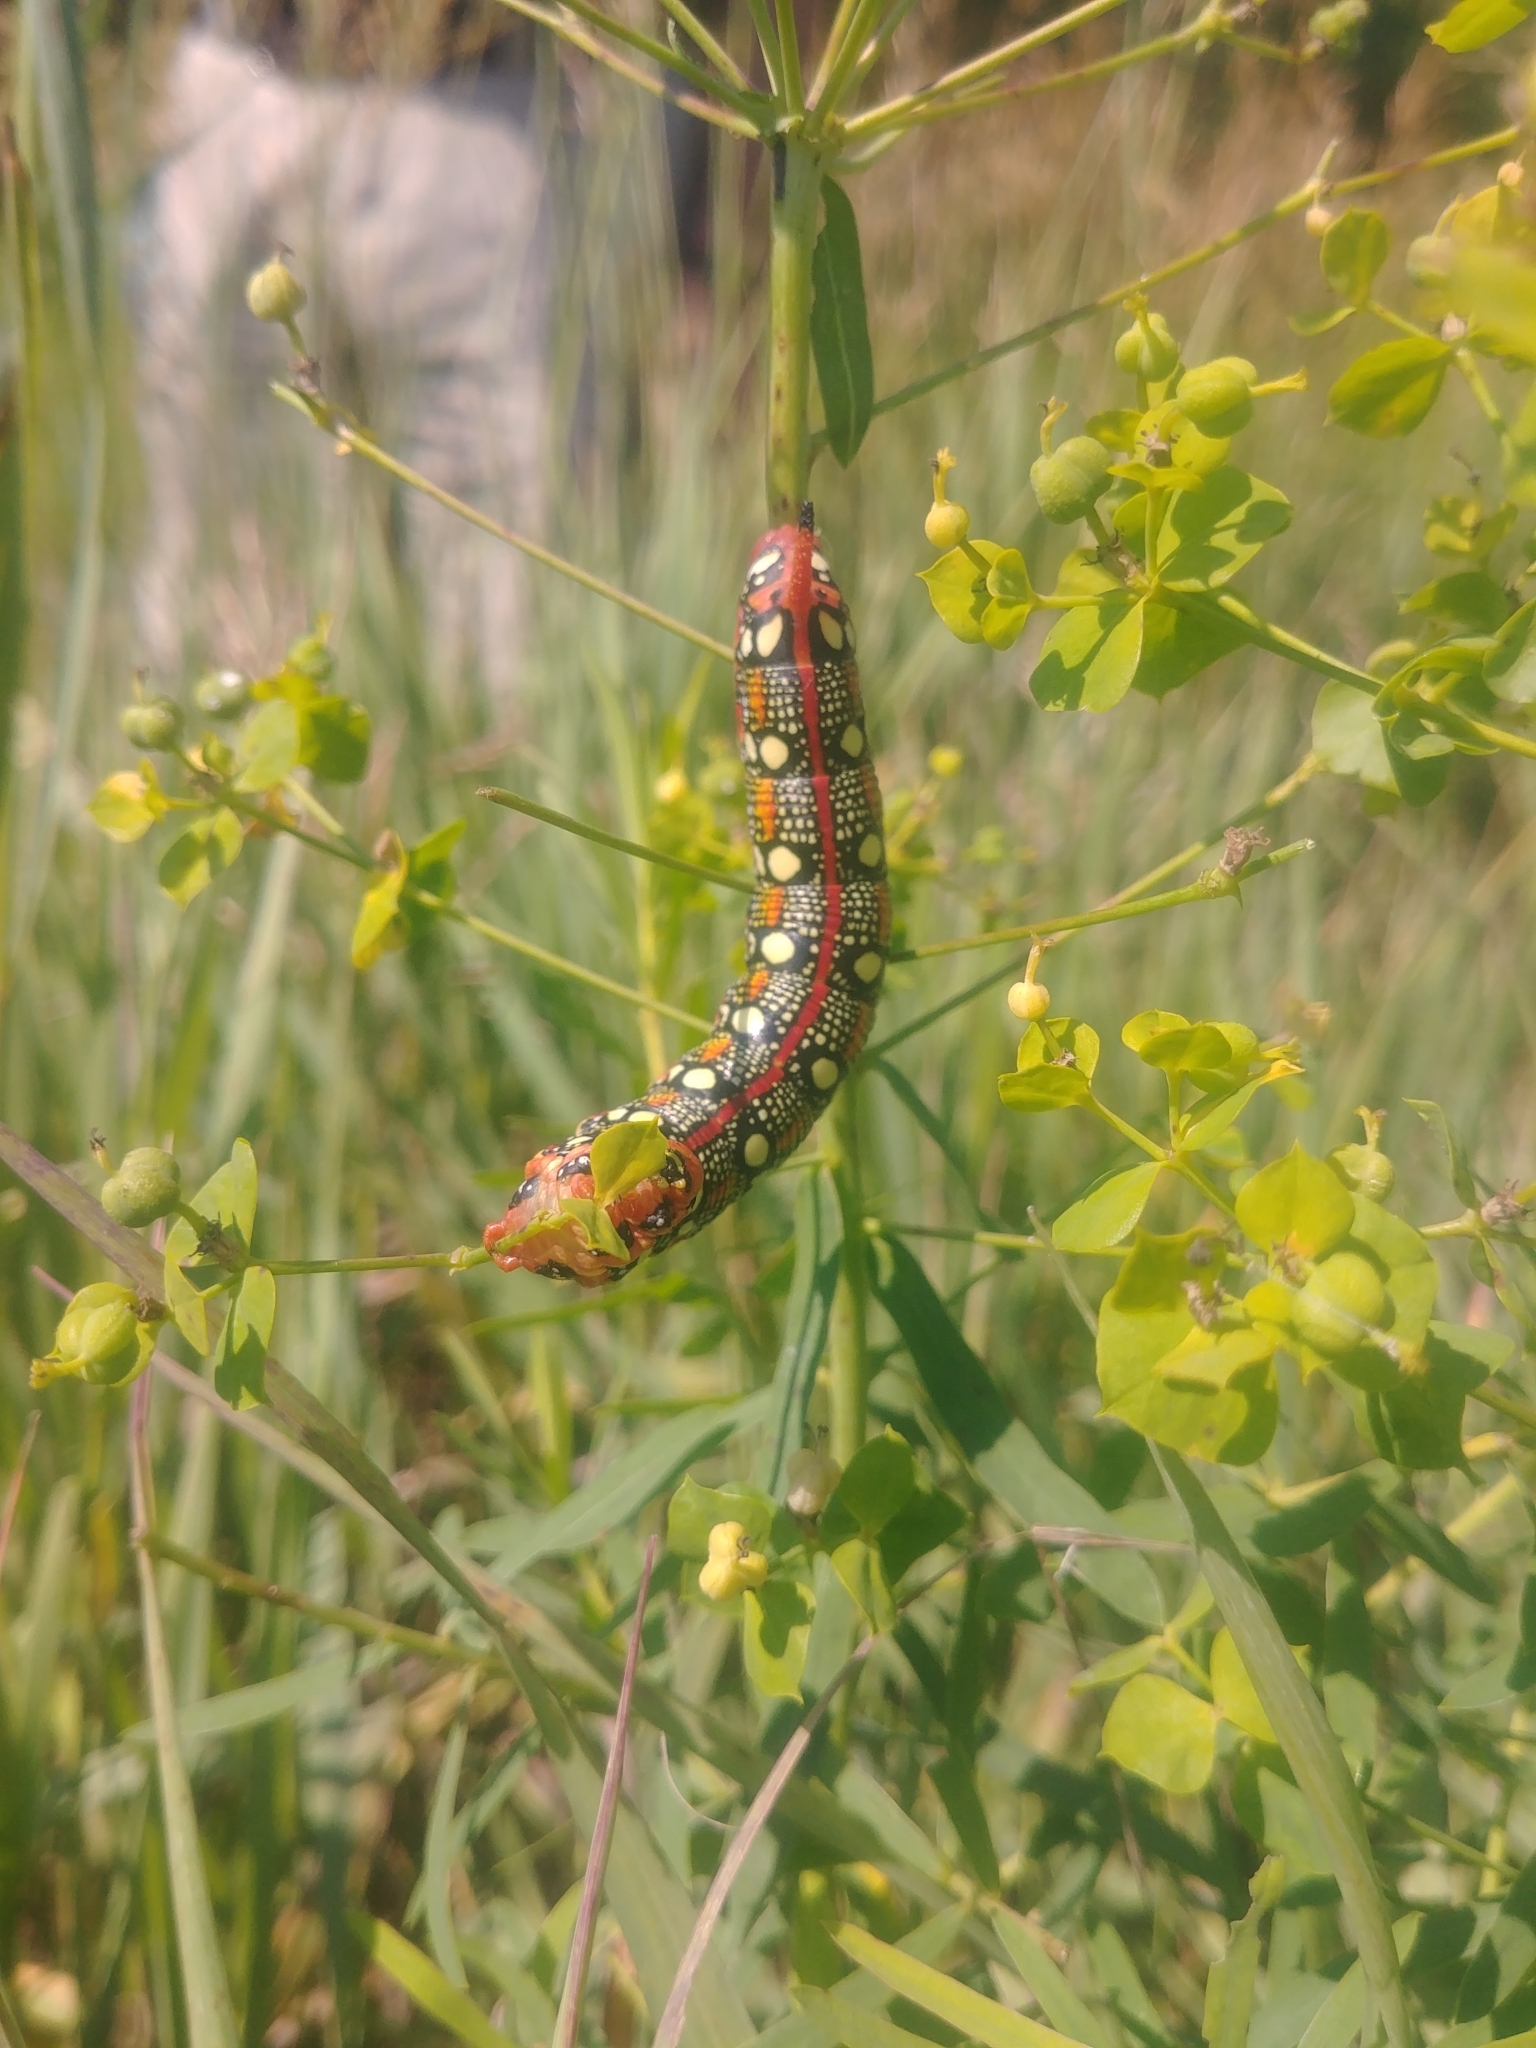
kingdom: Animalia
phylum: Arthropoda
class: Insecta
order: Lepidoptera
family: Sphingidae
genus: Hyles
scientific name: Hyles euphorbiae
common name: Spurge hawk-moth
